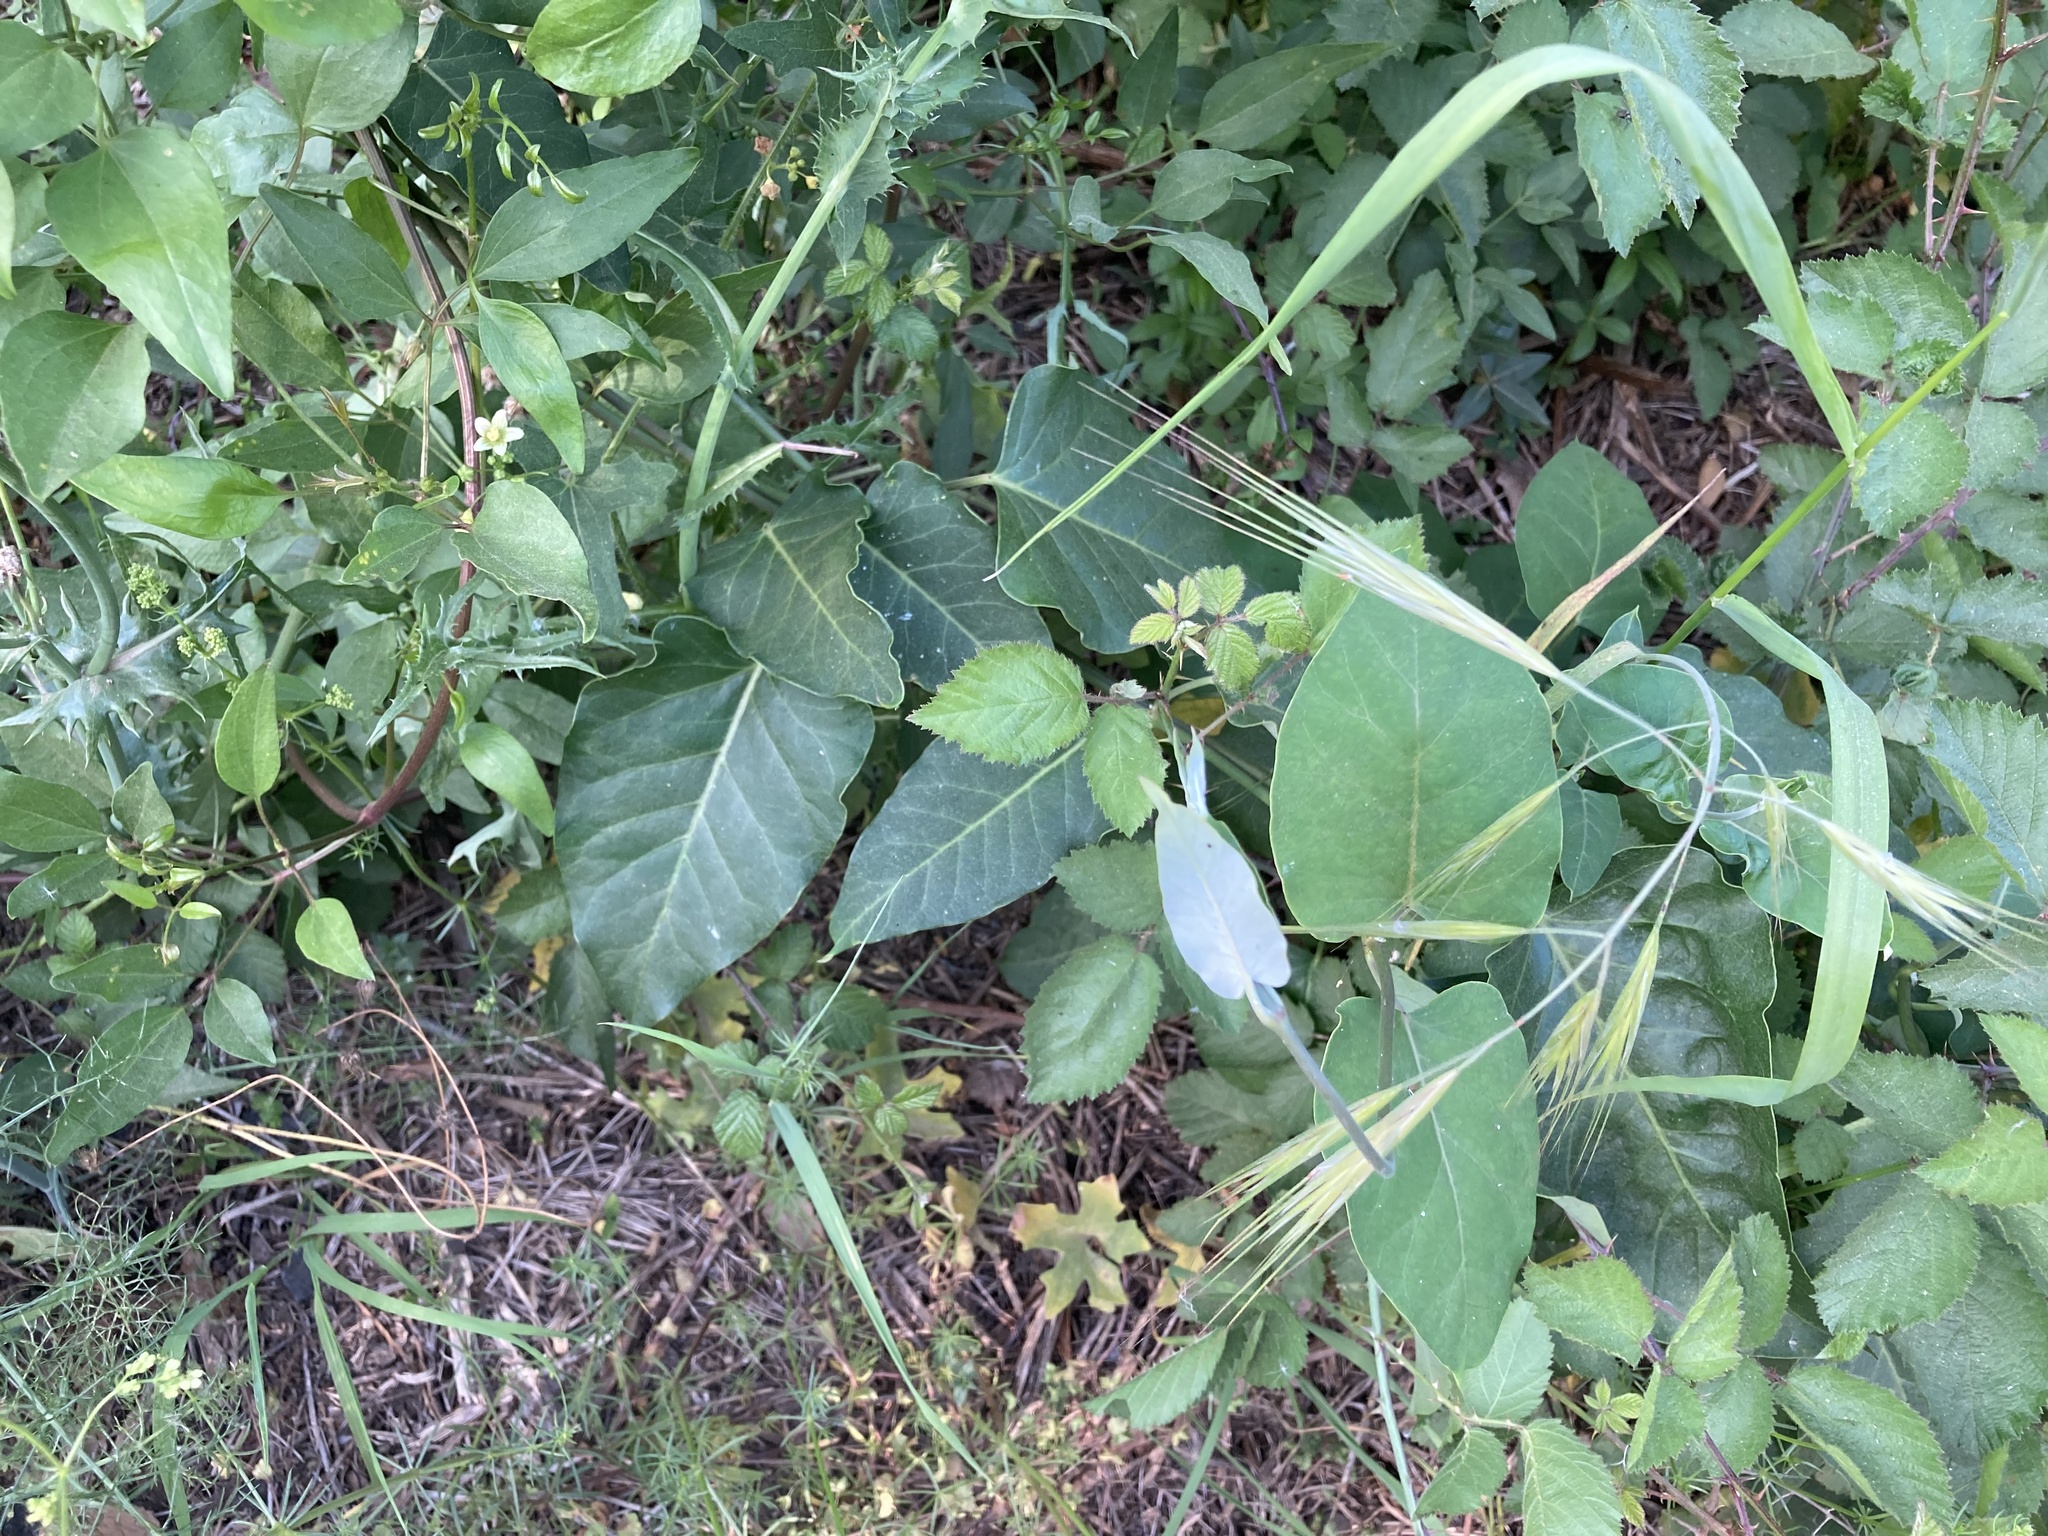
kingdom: Plantae
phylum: Tracheophyta
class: Magnoliopsida
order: Gentianales
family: Apocynaceae
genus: Araujia
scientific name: Araujia sericifera
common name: White bladderflower
